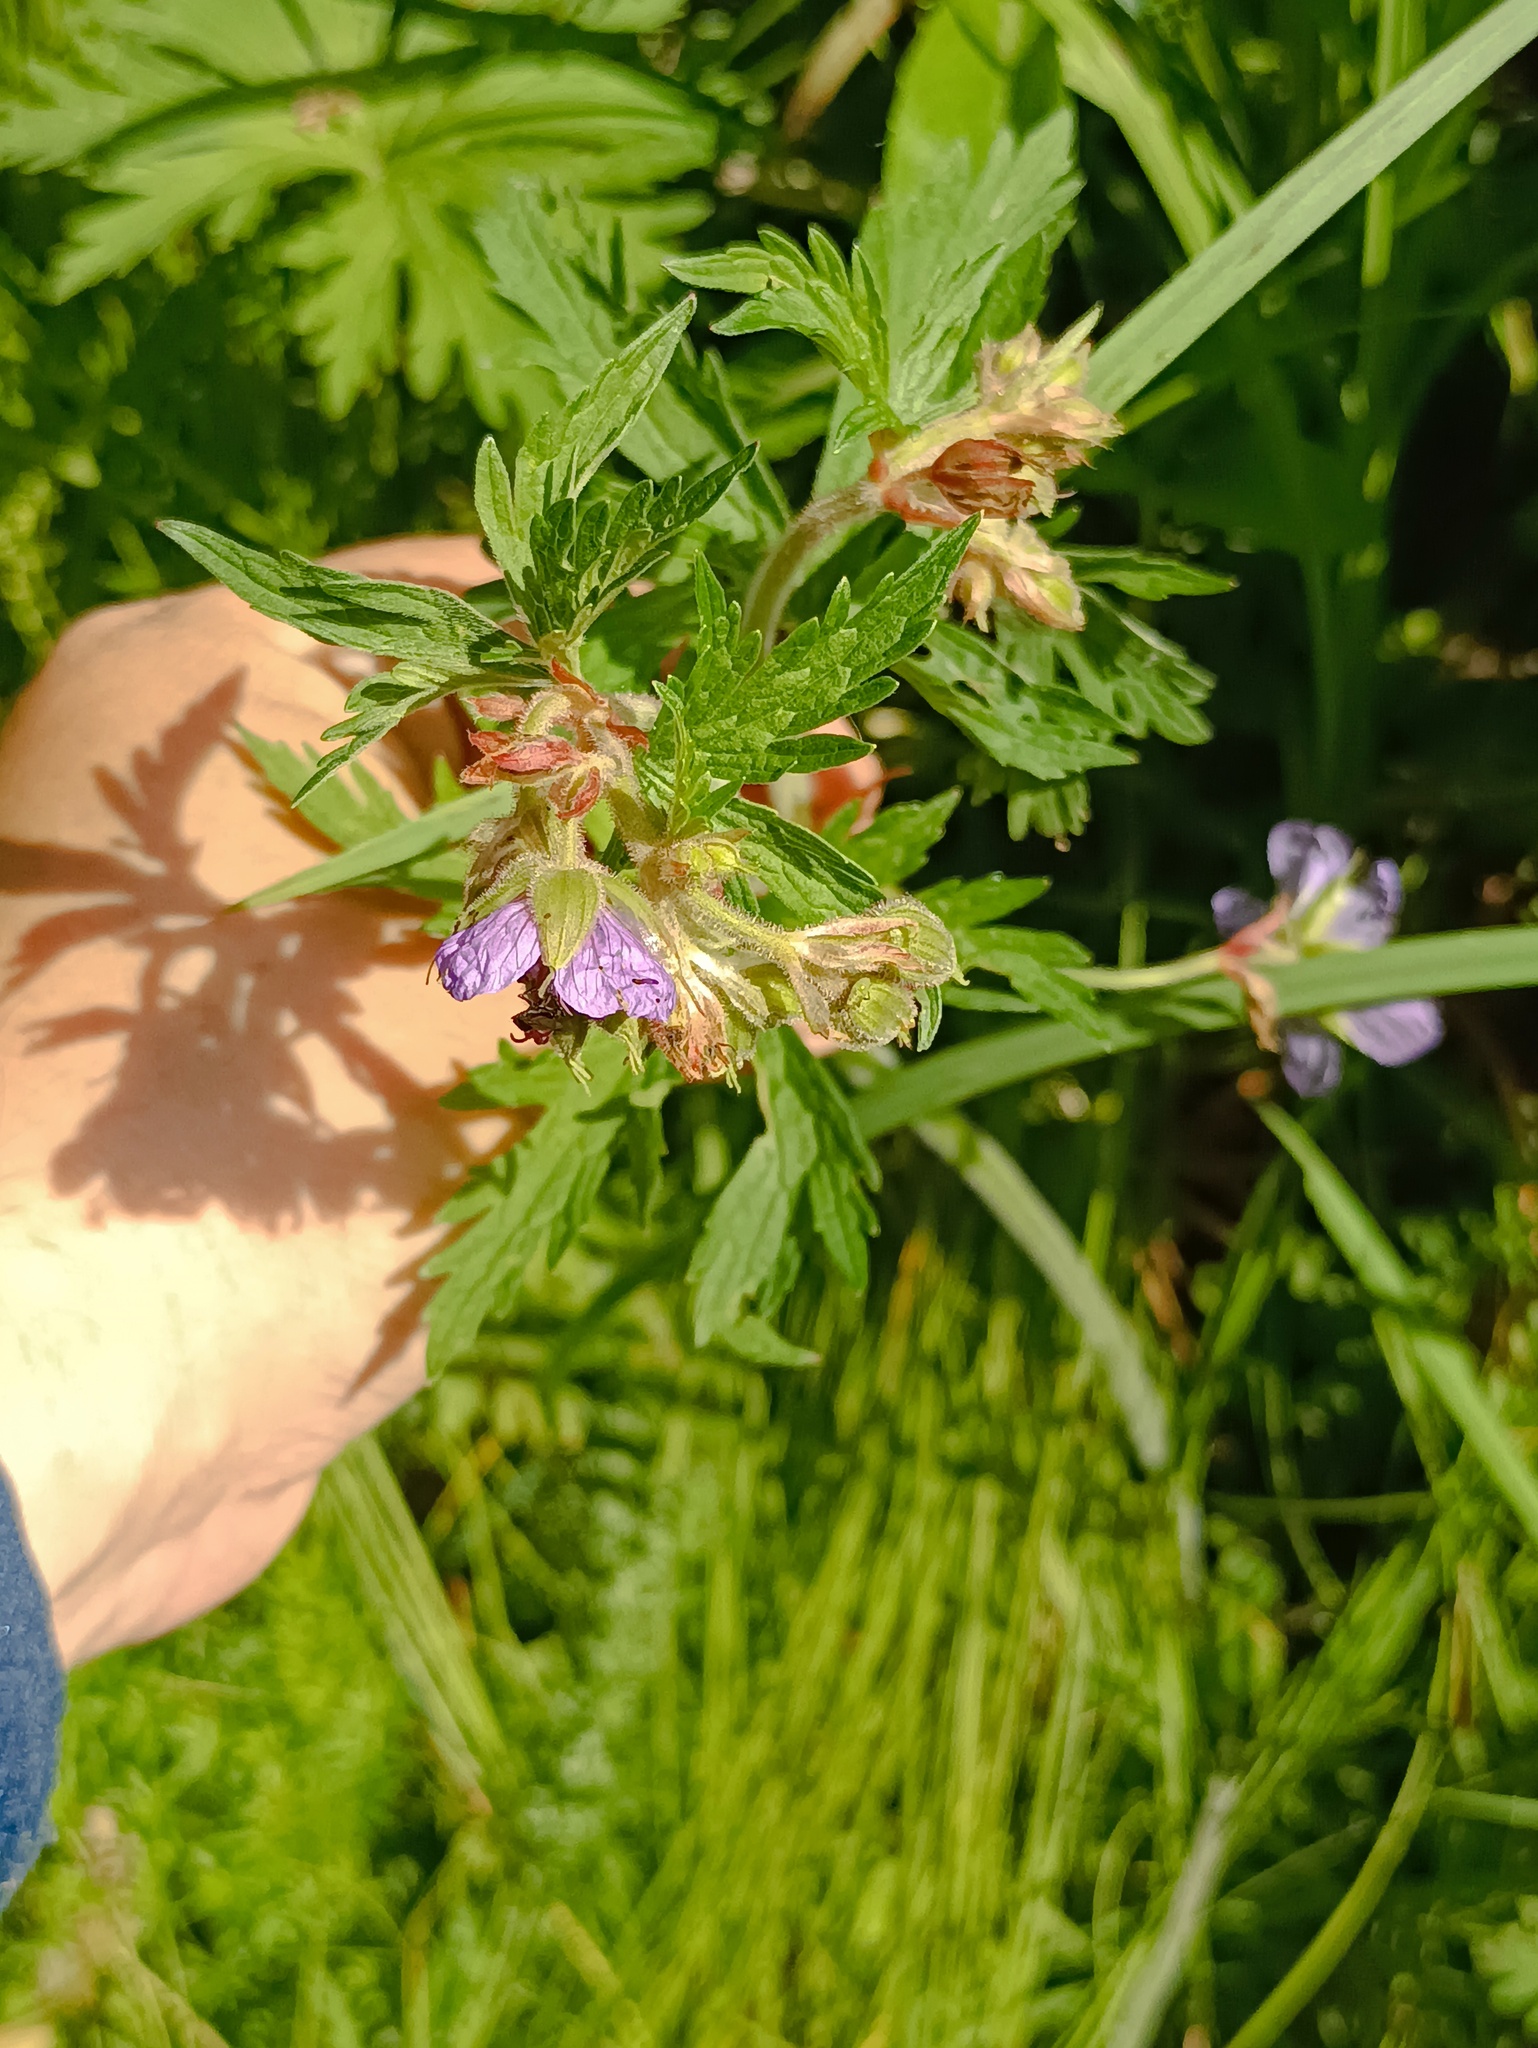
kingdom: Plantae
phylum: Tracheophyta
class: Magnoliopsida
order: Geraniales
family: Geraniaceae
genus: Geranium
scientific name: Geranium pratense
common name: Meadow crane's-bill
